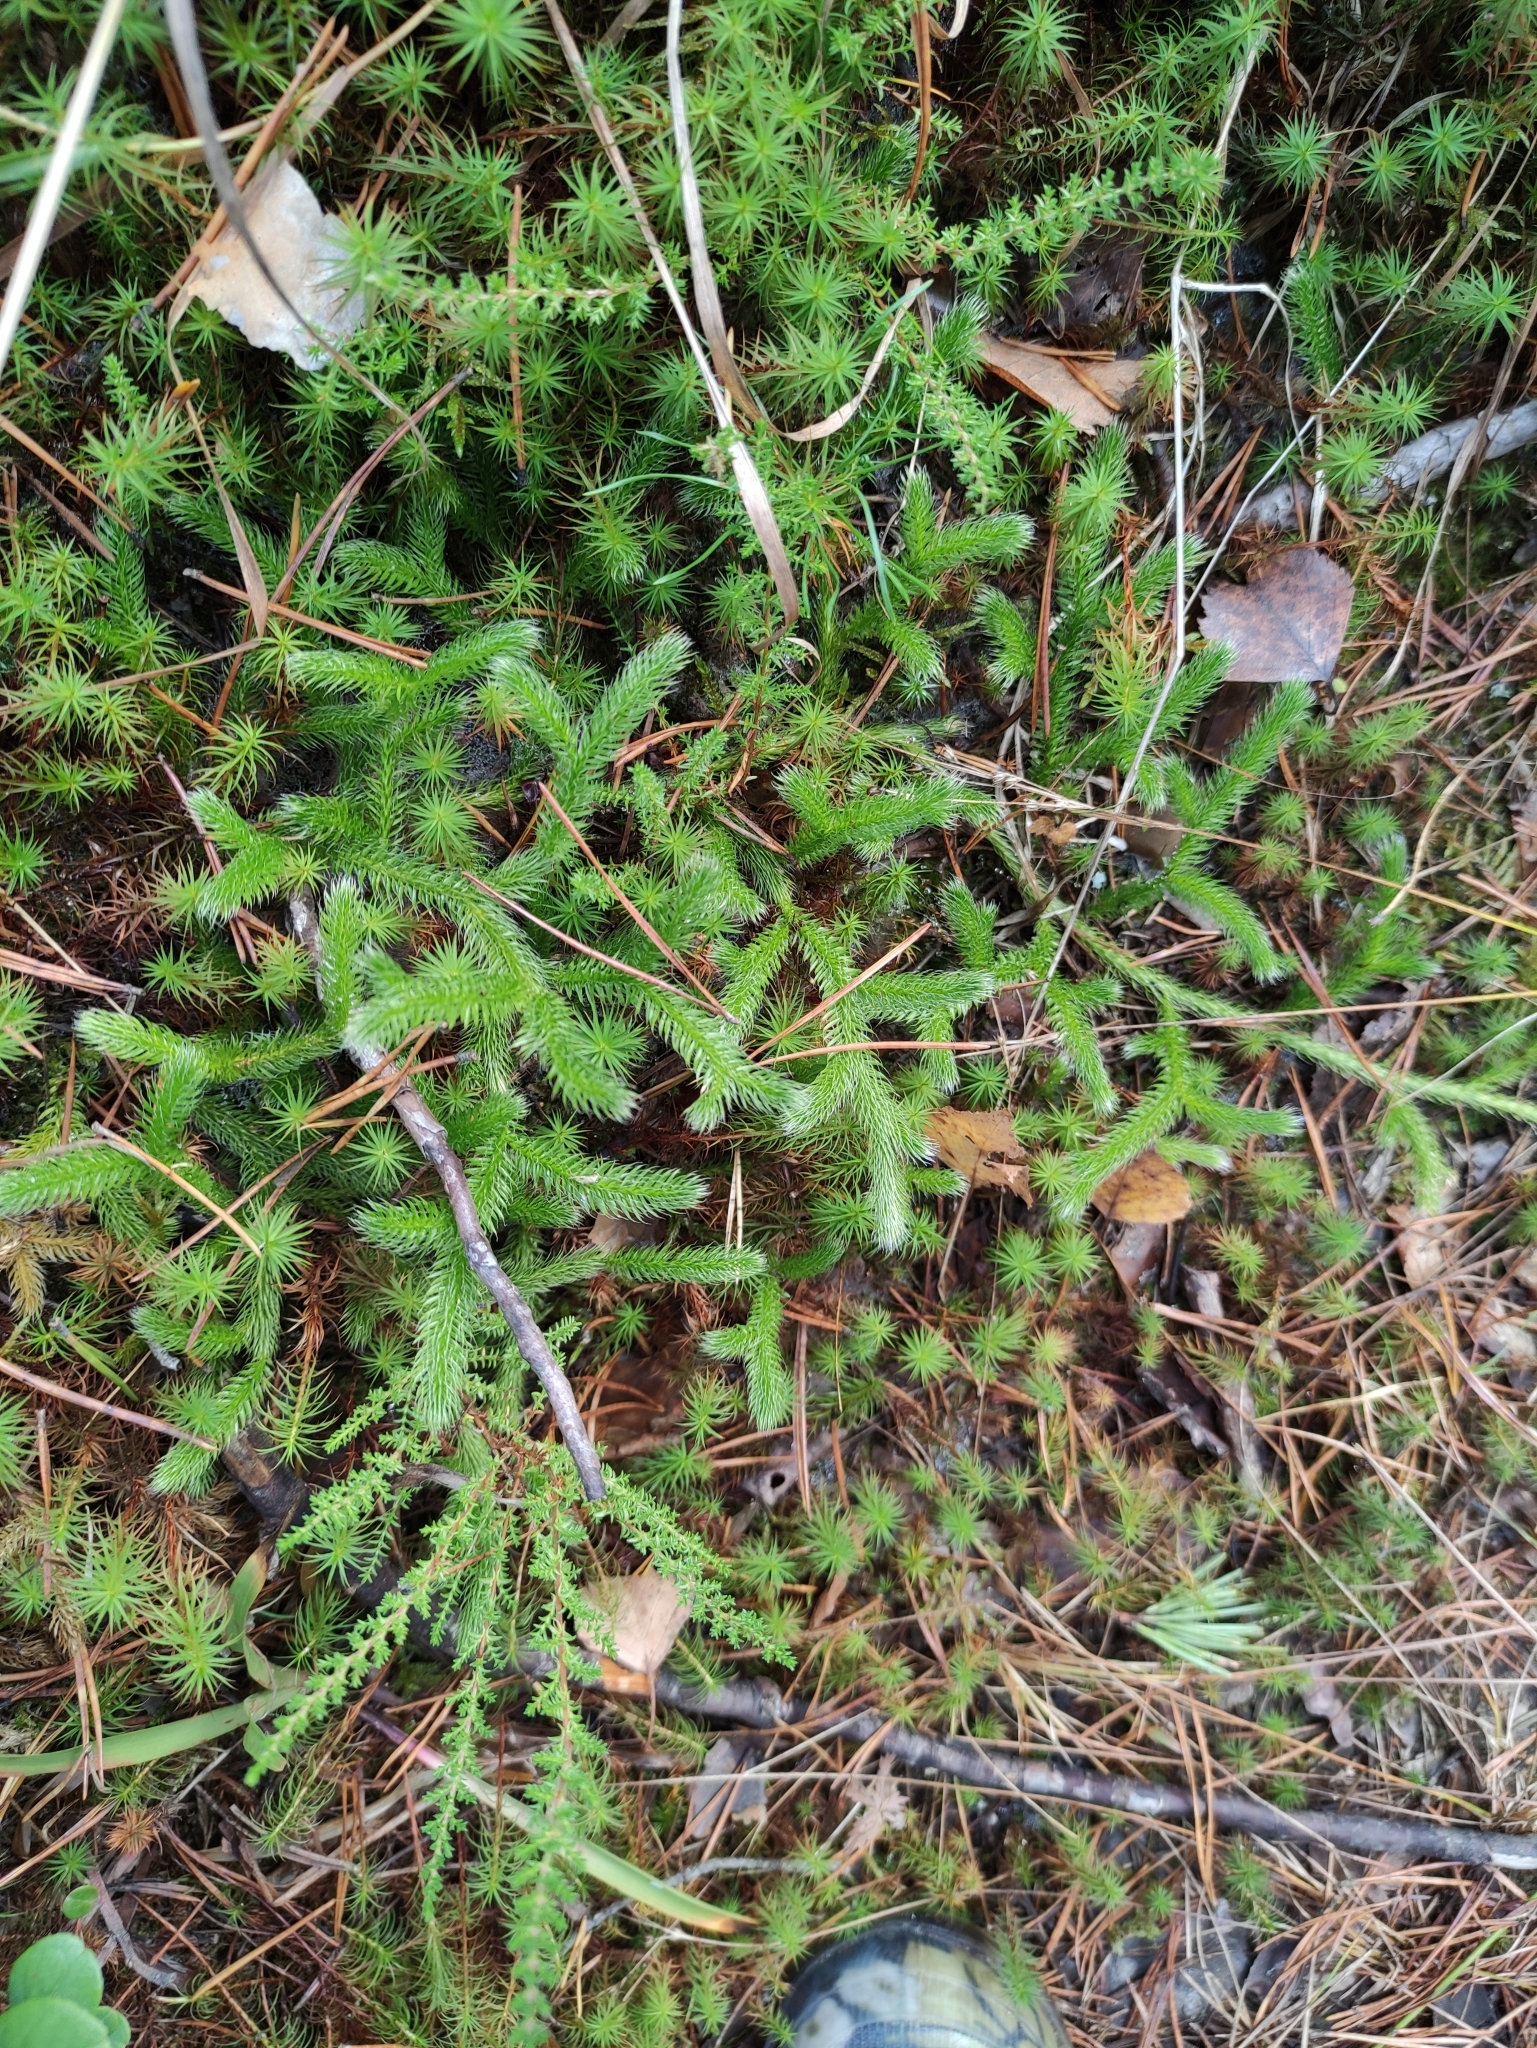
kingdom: Plantae
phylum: Tracheophyta
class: Lycopodiopsida
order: Lycopodiales
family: Lycopodiaceae
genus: Lycopodium
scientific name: Lycopodium clavatum
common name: Stag's-horn clubmoss
